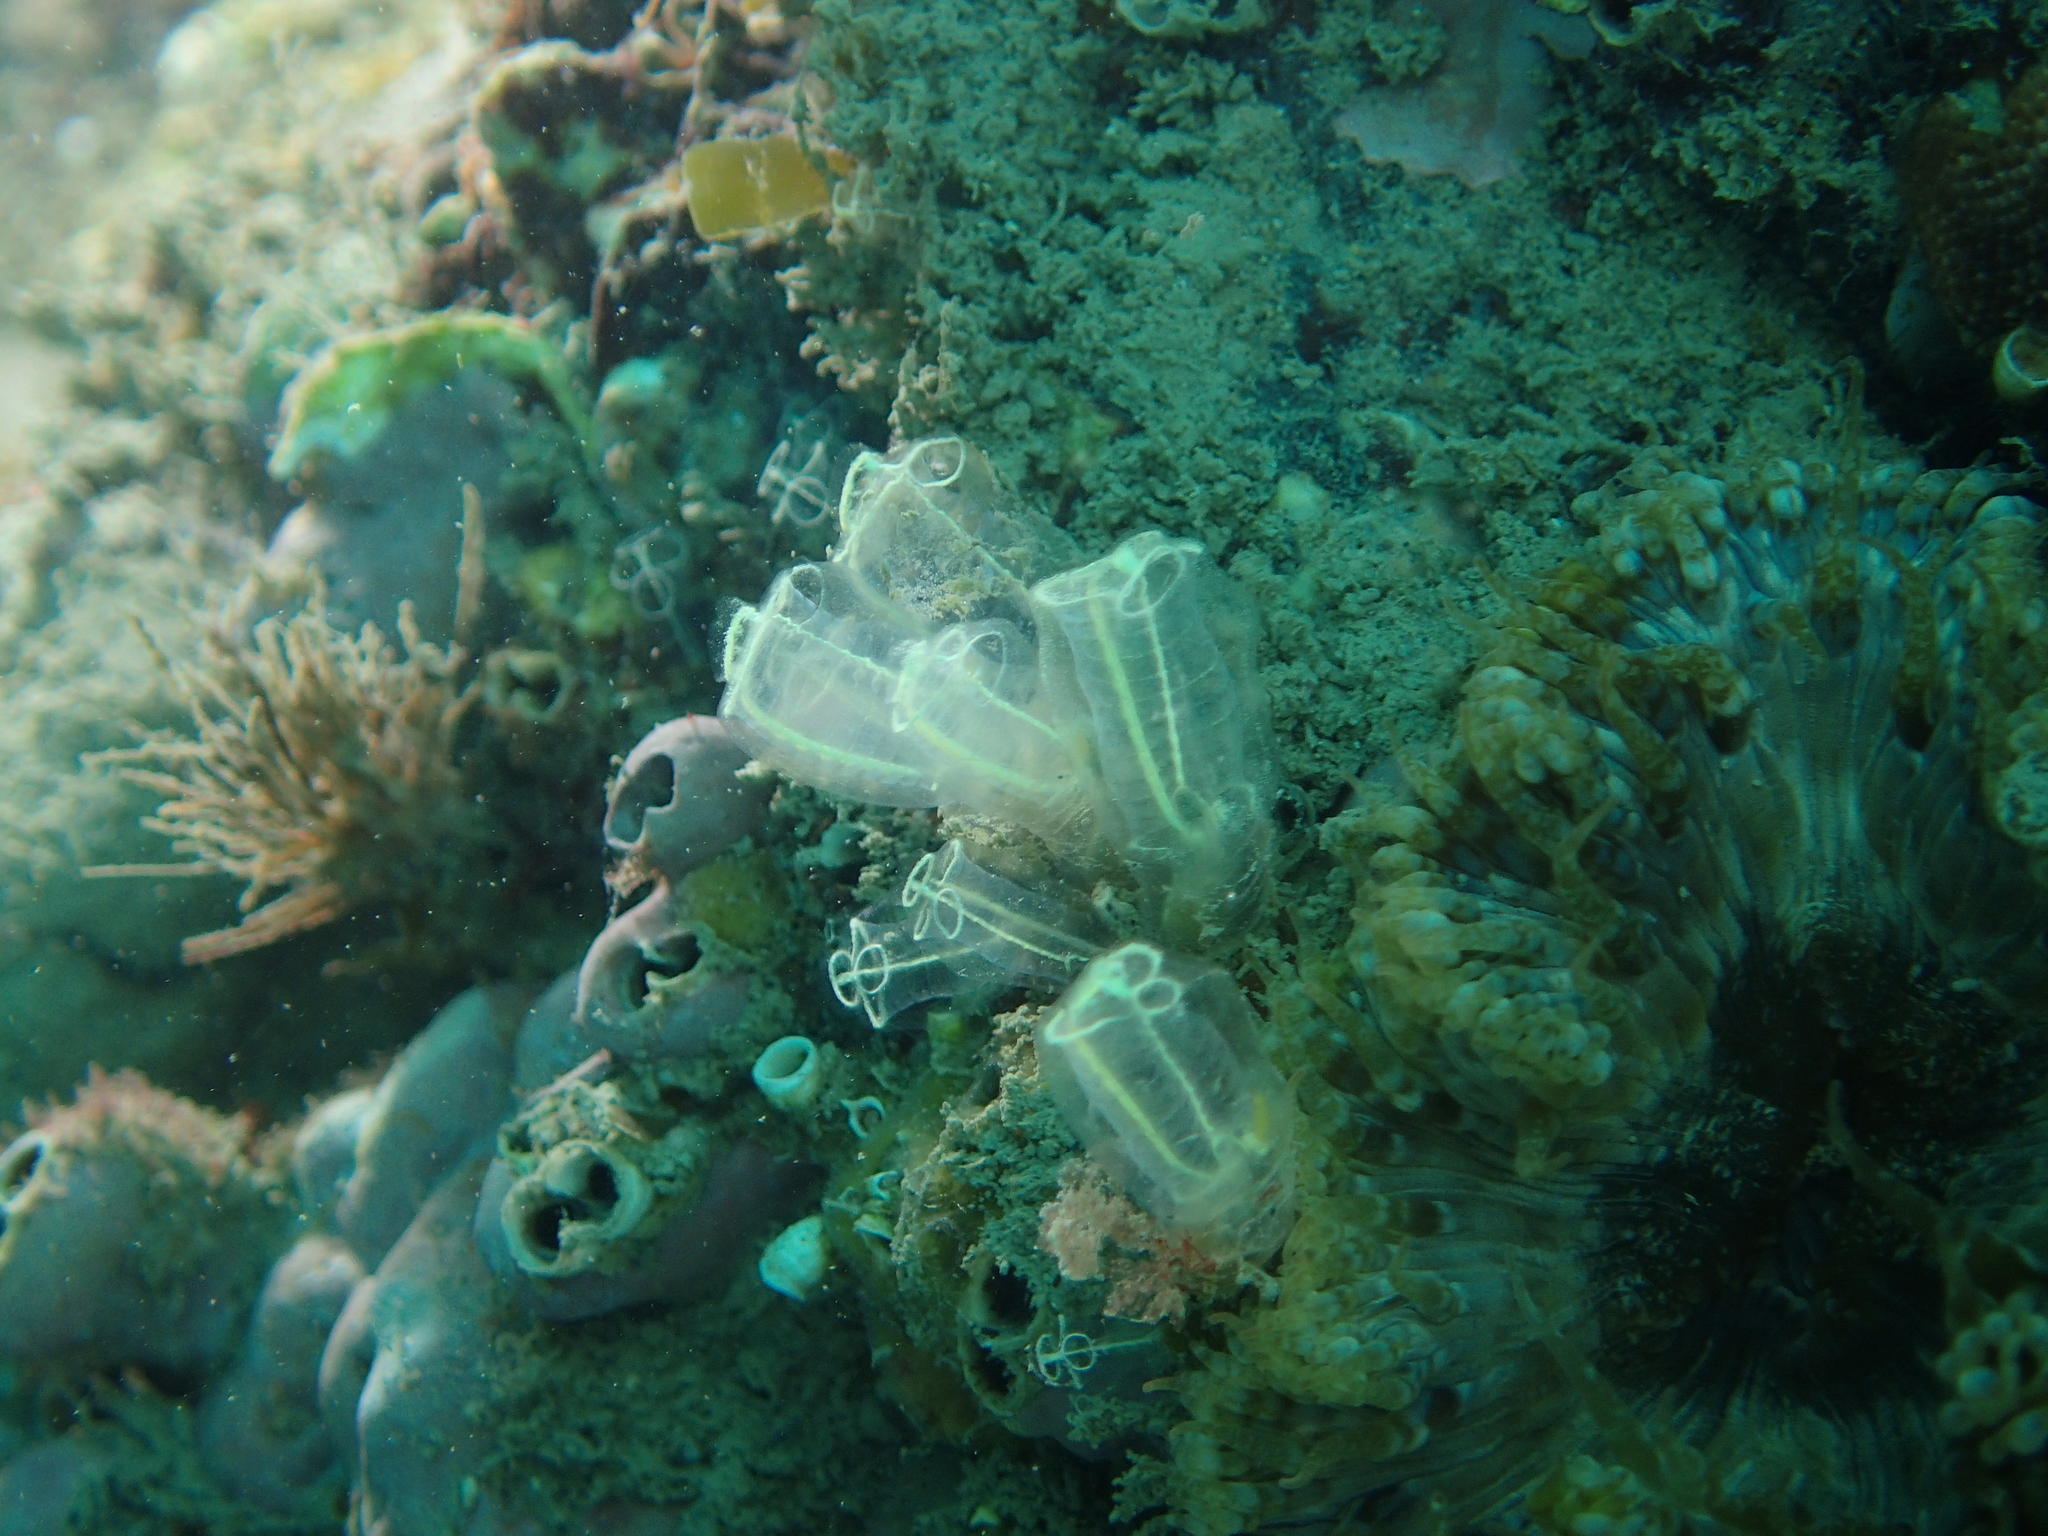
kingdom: Animalia
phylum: Chordata
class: Ascidiacea
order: Aplousobranchia
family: Clavelinidae
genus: Clavelina
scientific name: Clavelina lepadiformis
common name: Light bulb tunicate
